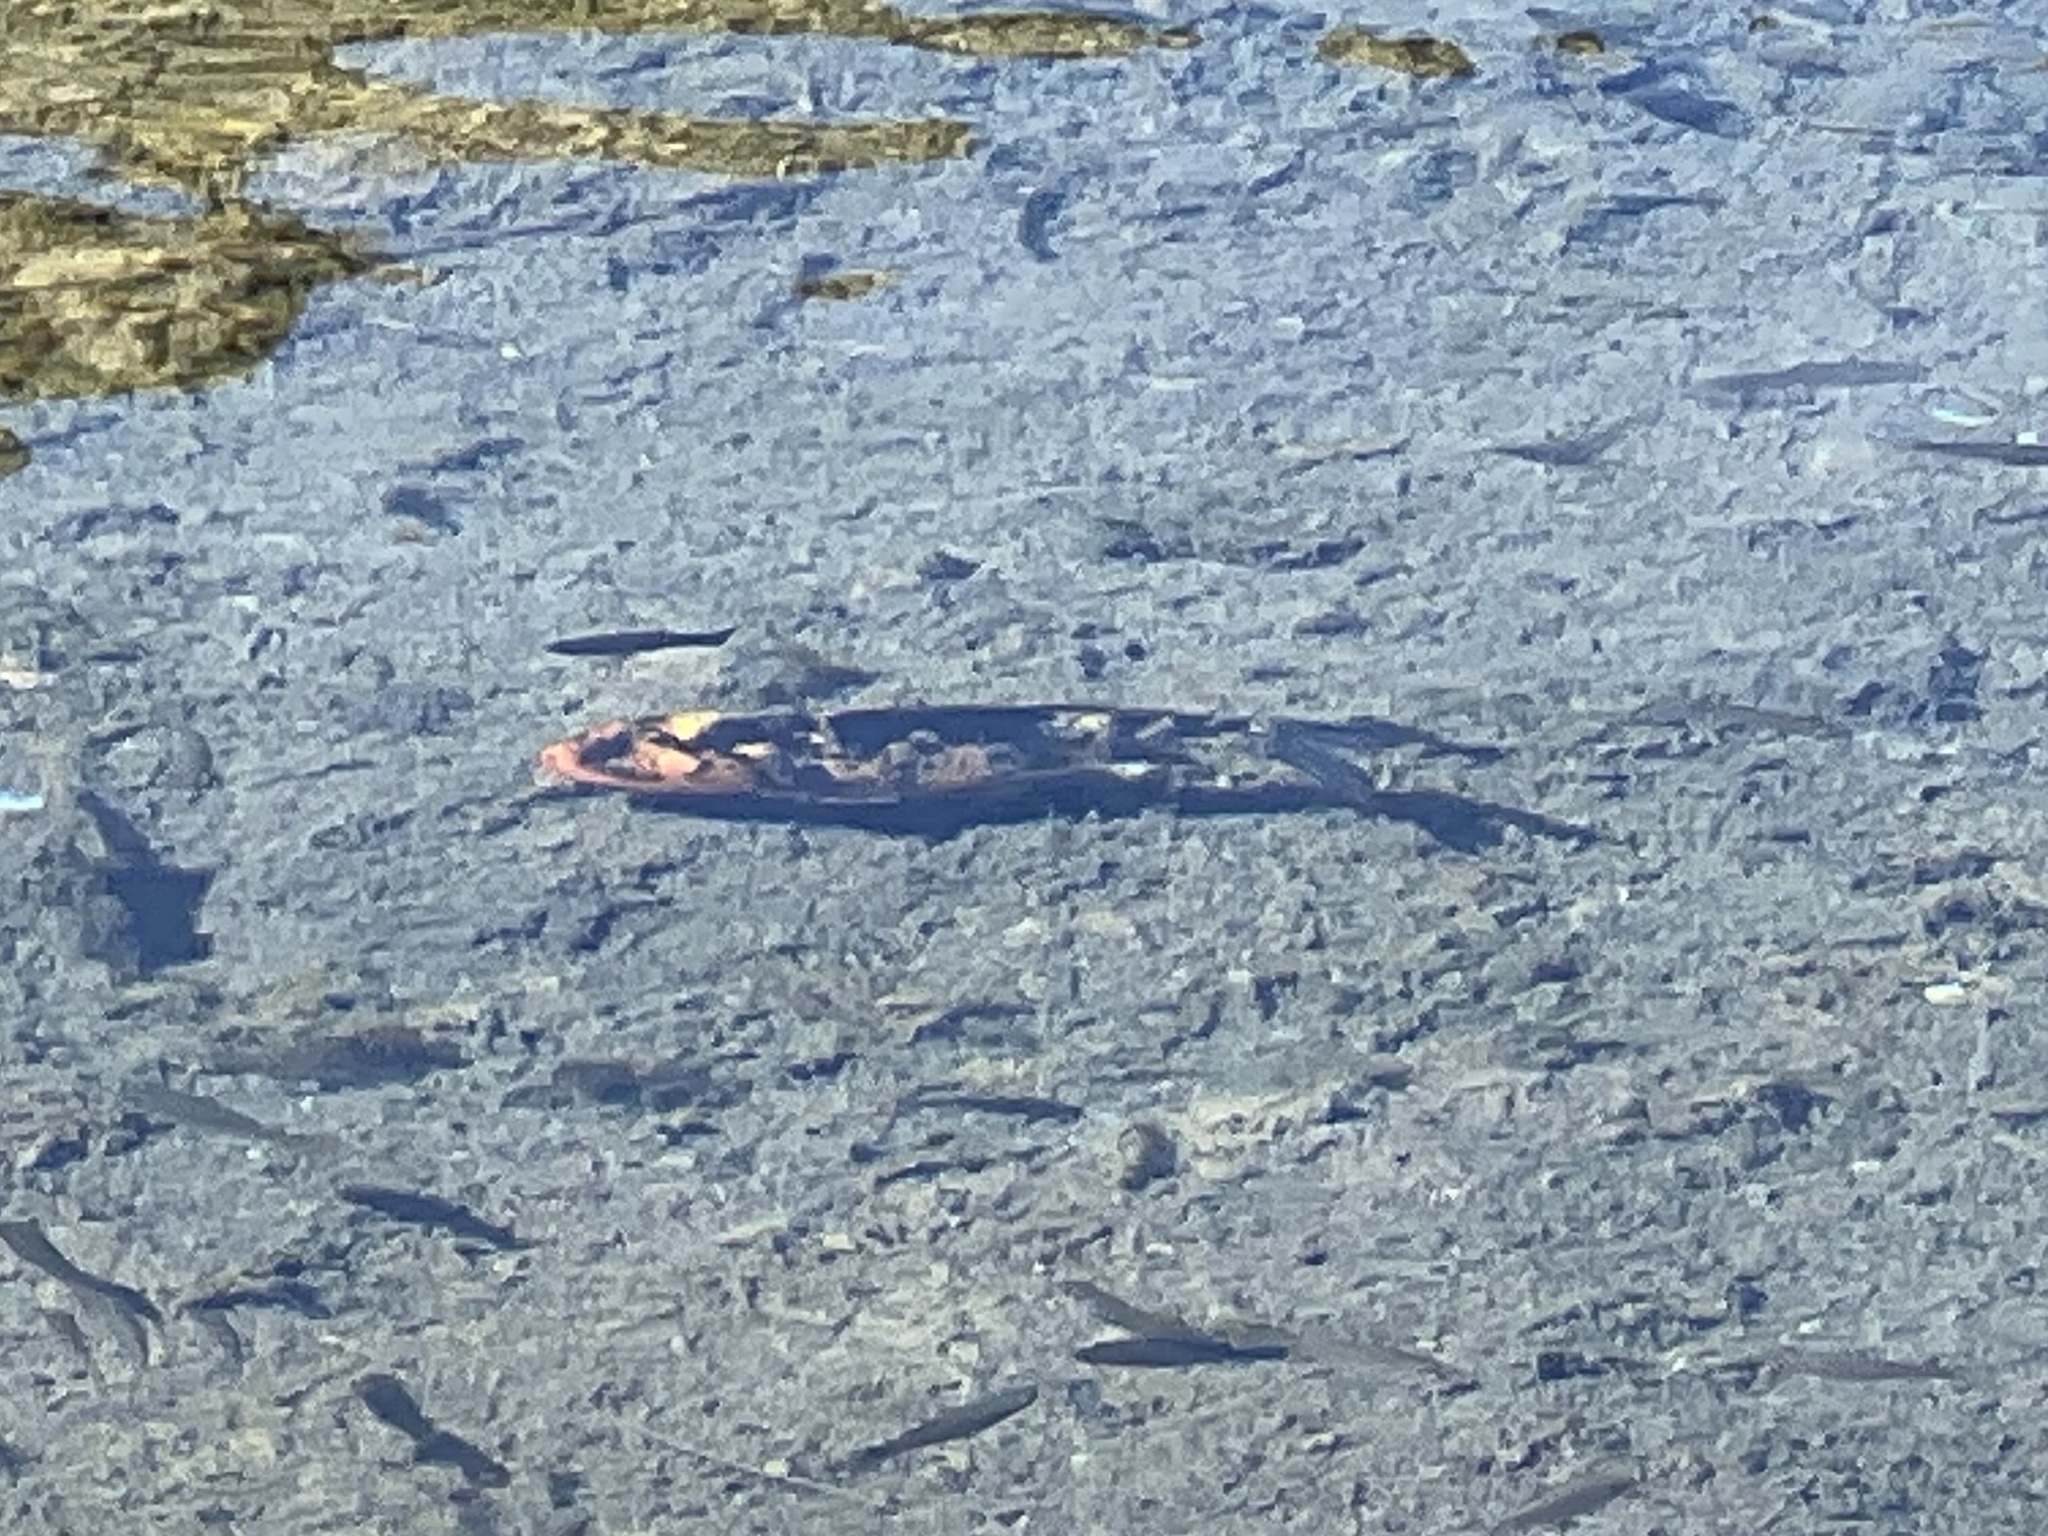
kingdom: Animalia
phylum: Chordata
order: Cypriniformes
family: Cyprinidae
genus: Cyprinus
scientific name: Cyprinus rubrofuscus
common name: Koi
